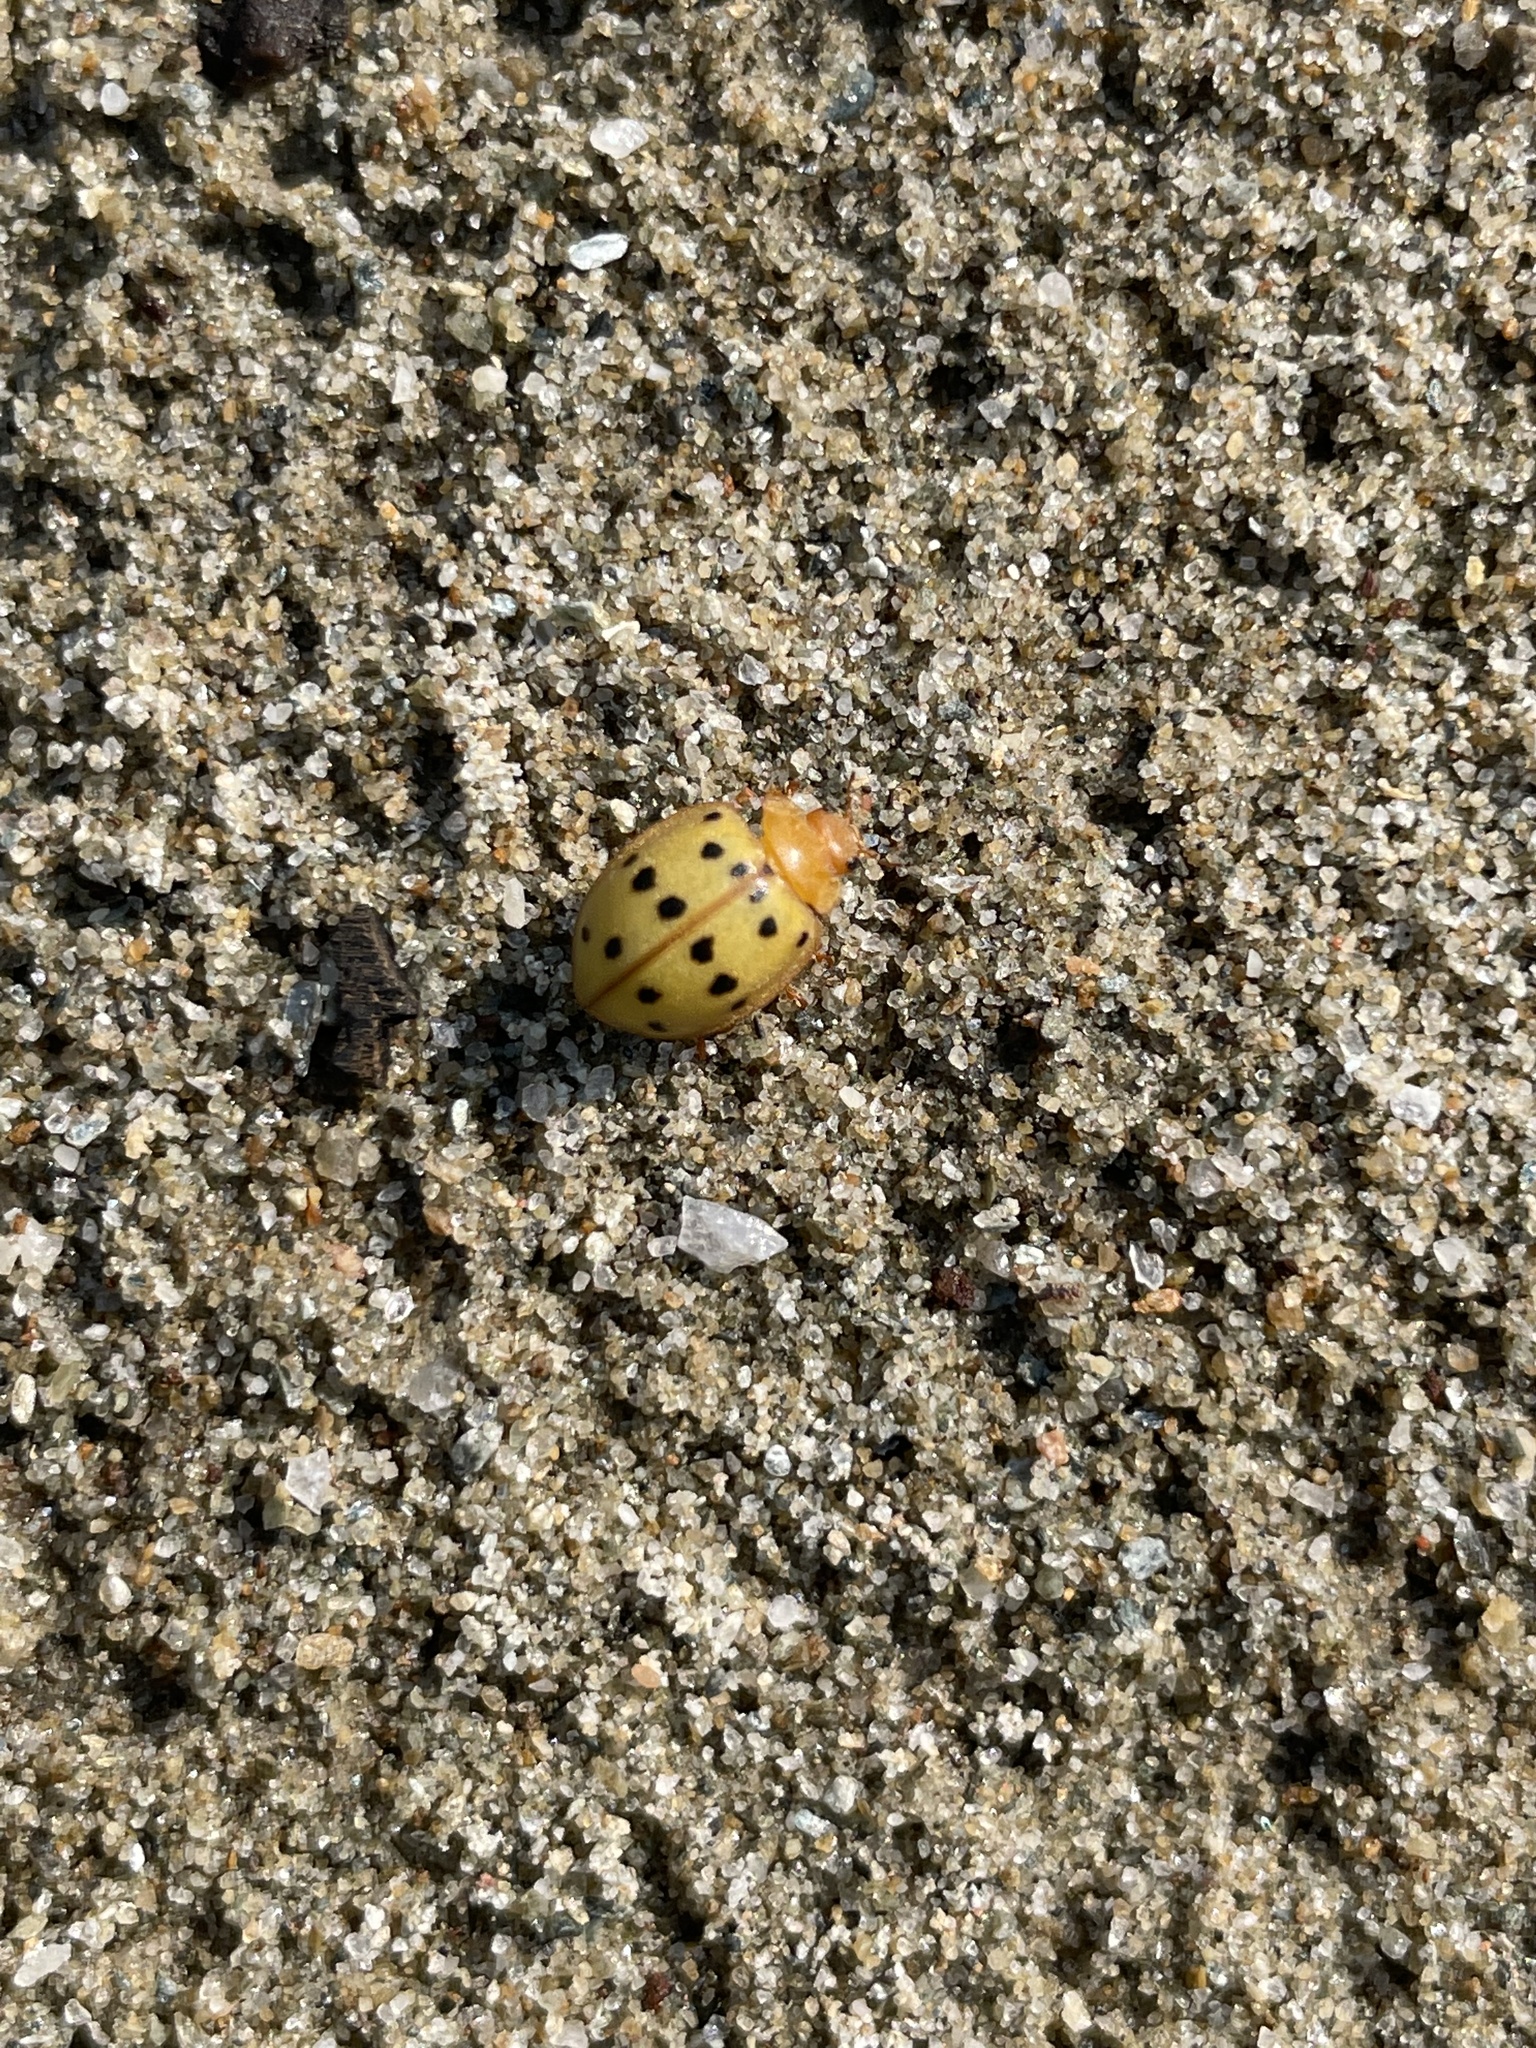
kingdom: Animalia
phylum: Arthropoda
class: Insecta
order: Coleoptera
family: Coccinellidae
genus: Epilachna
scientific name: Epilachna varivestis
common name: Ladybird beetle
